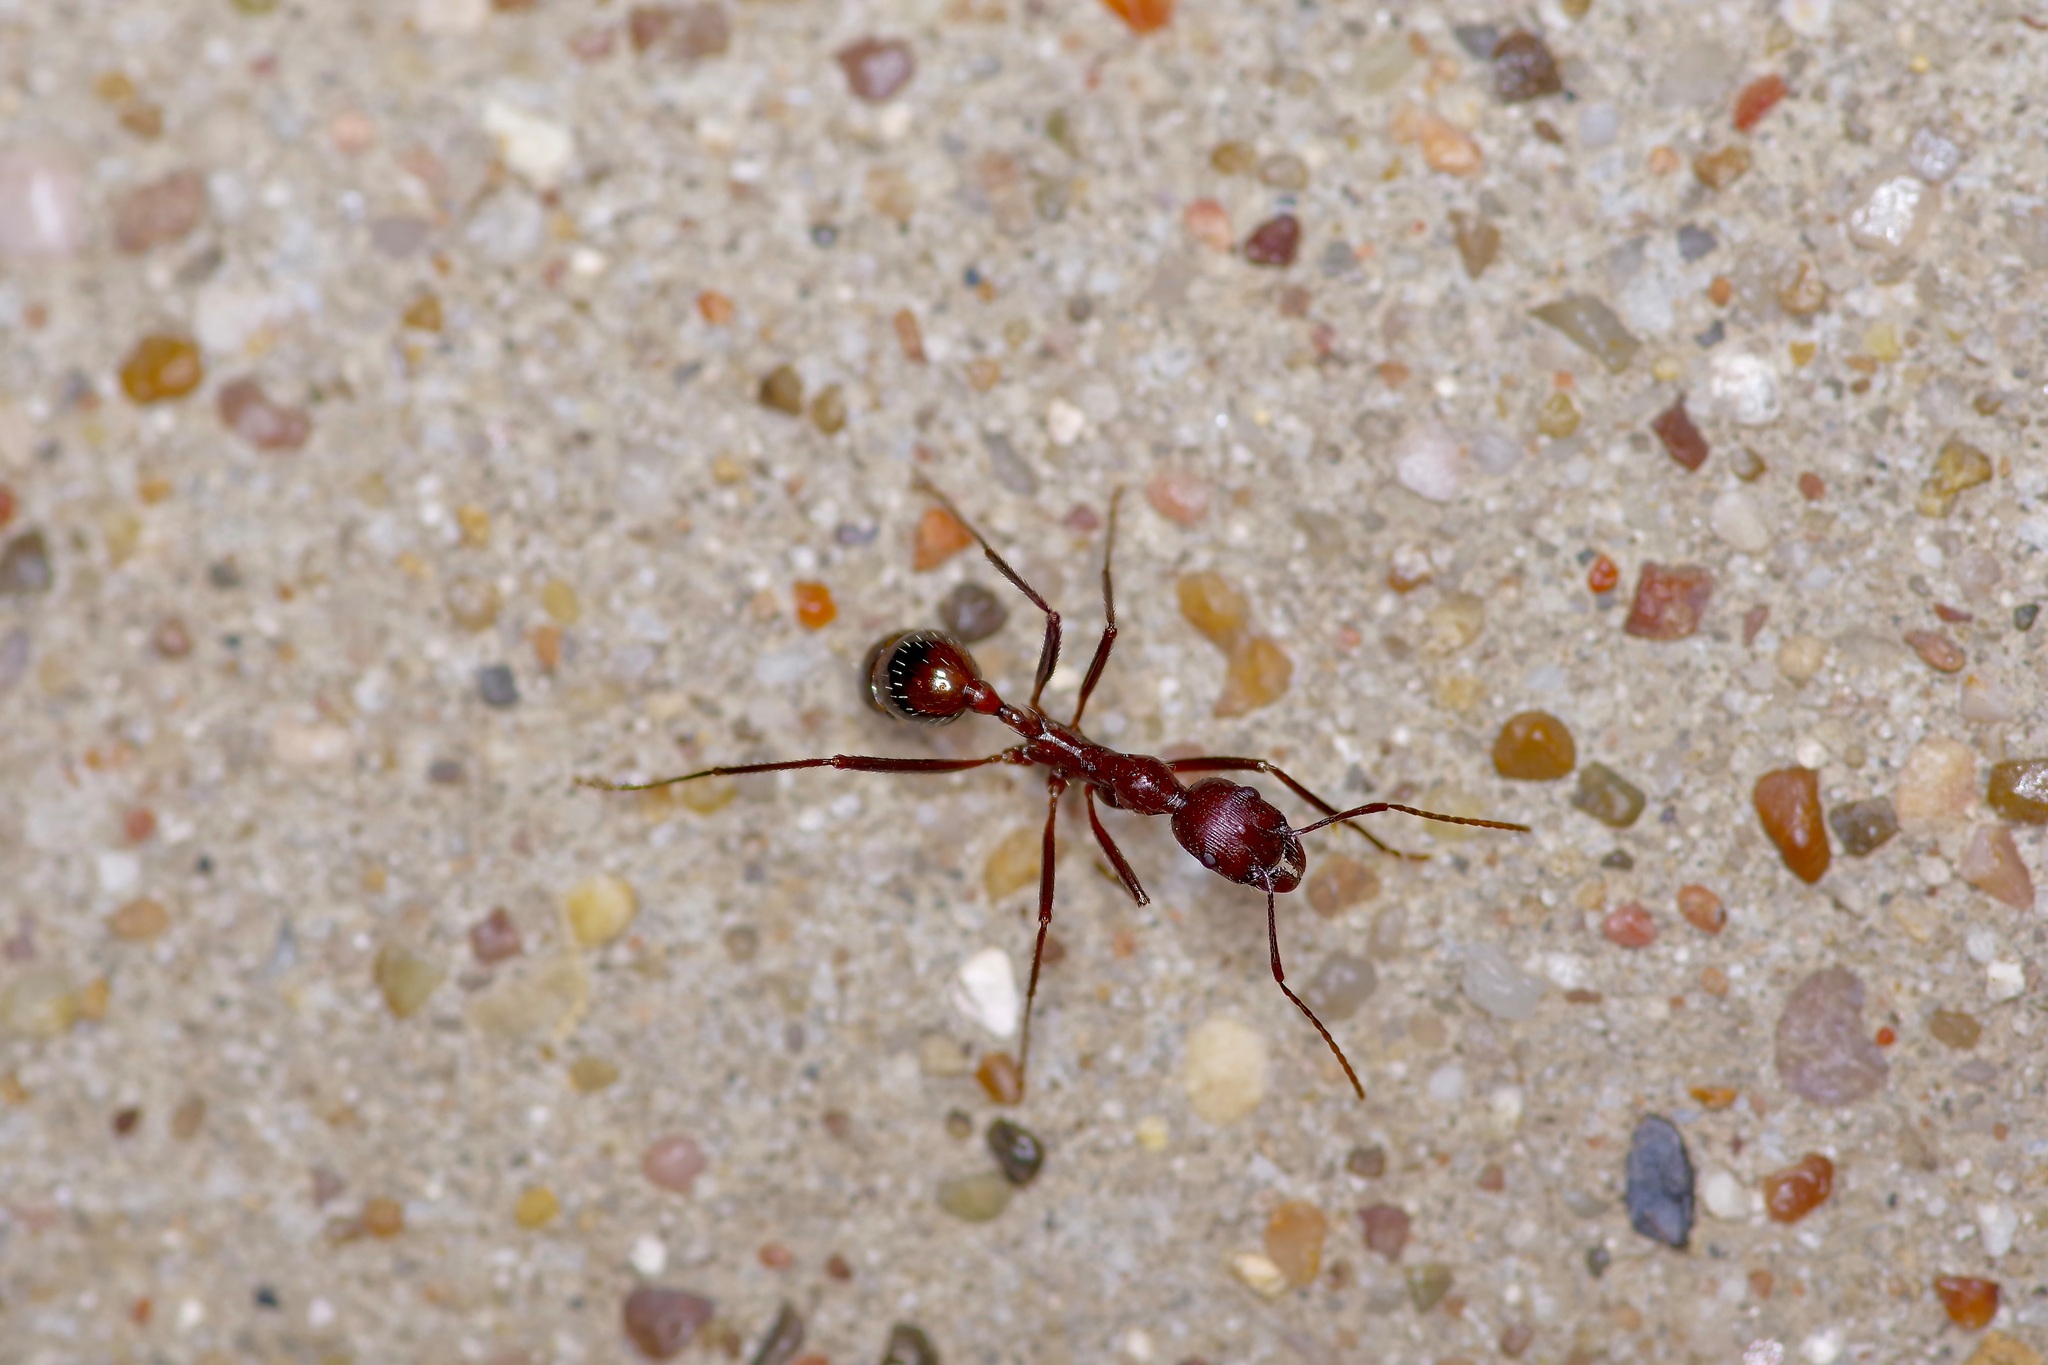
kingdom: Animalia
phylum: Arthropoda
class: Insecta
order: Hymenoptera
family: Formicidae
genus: Novomessor
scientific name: Novomessor cockerelli
